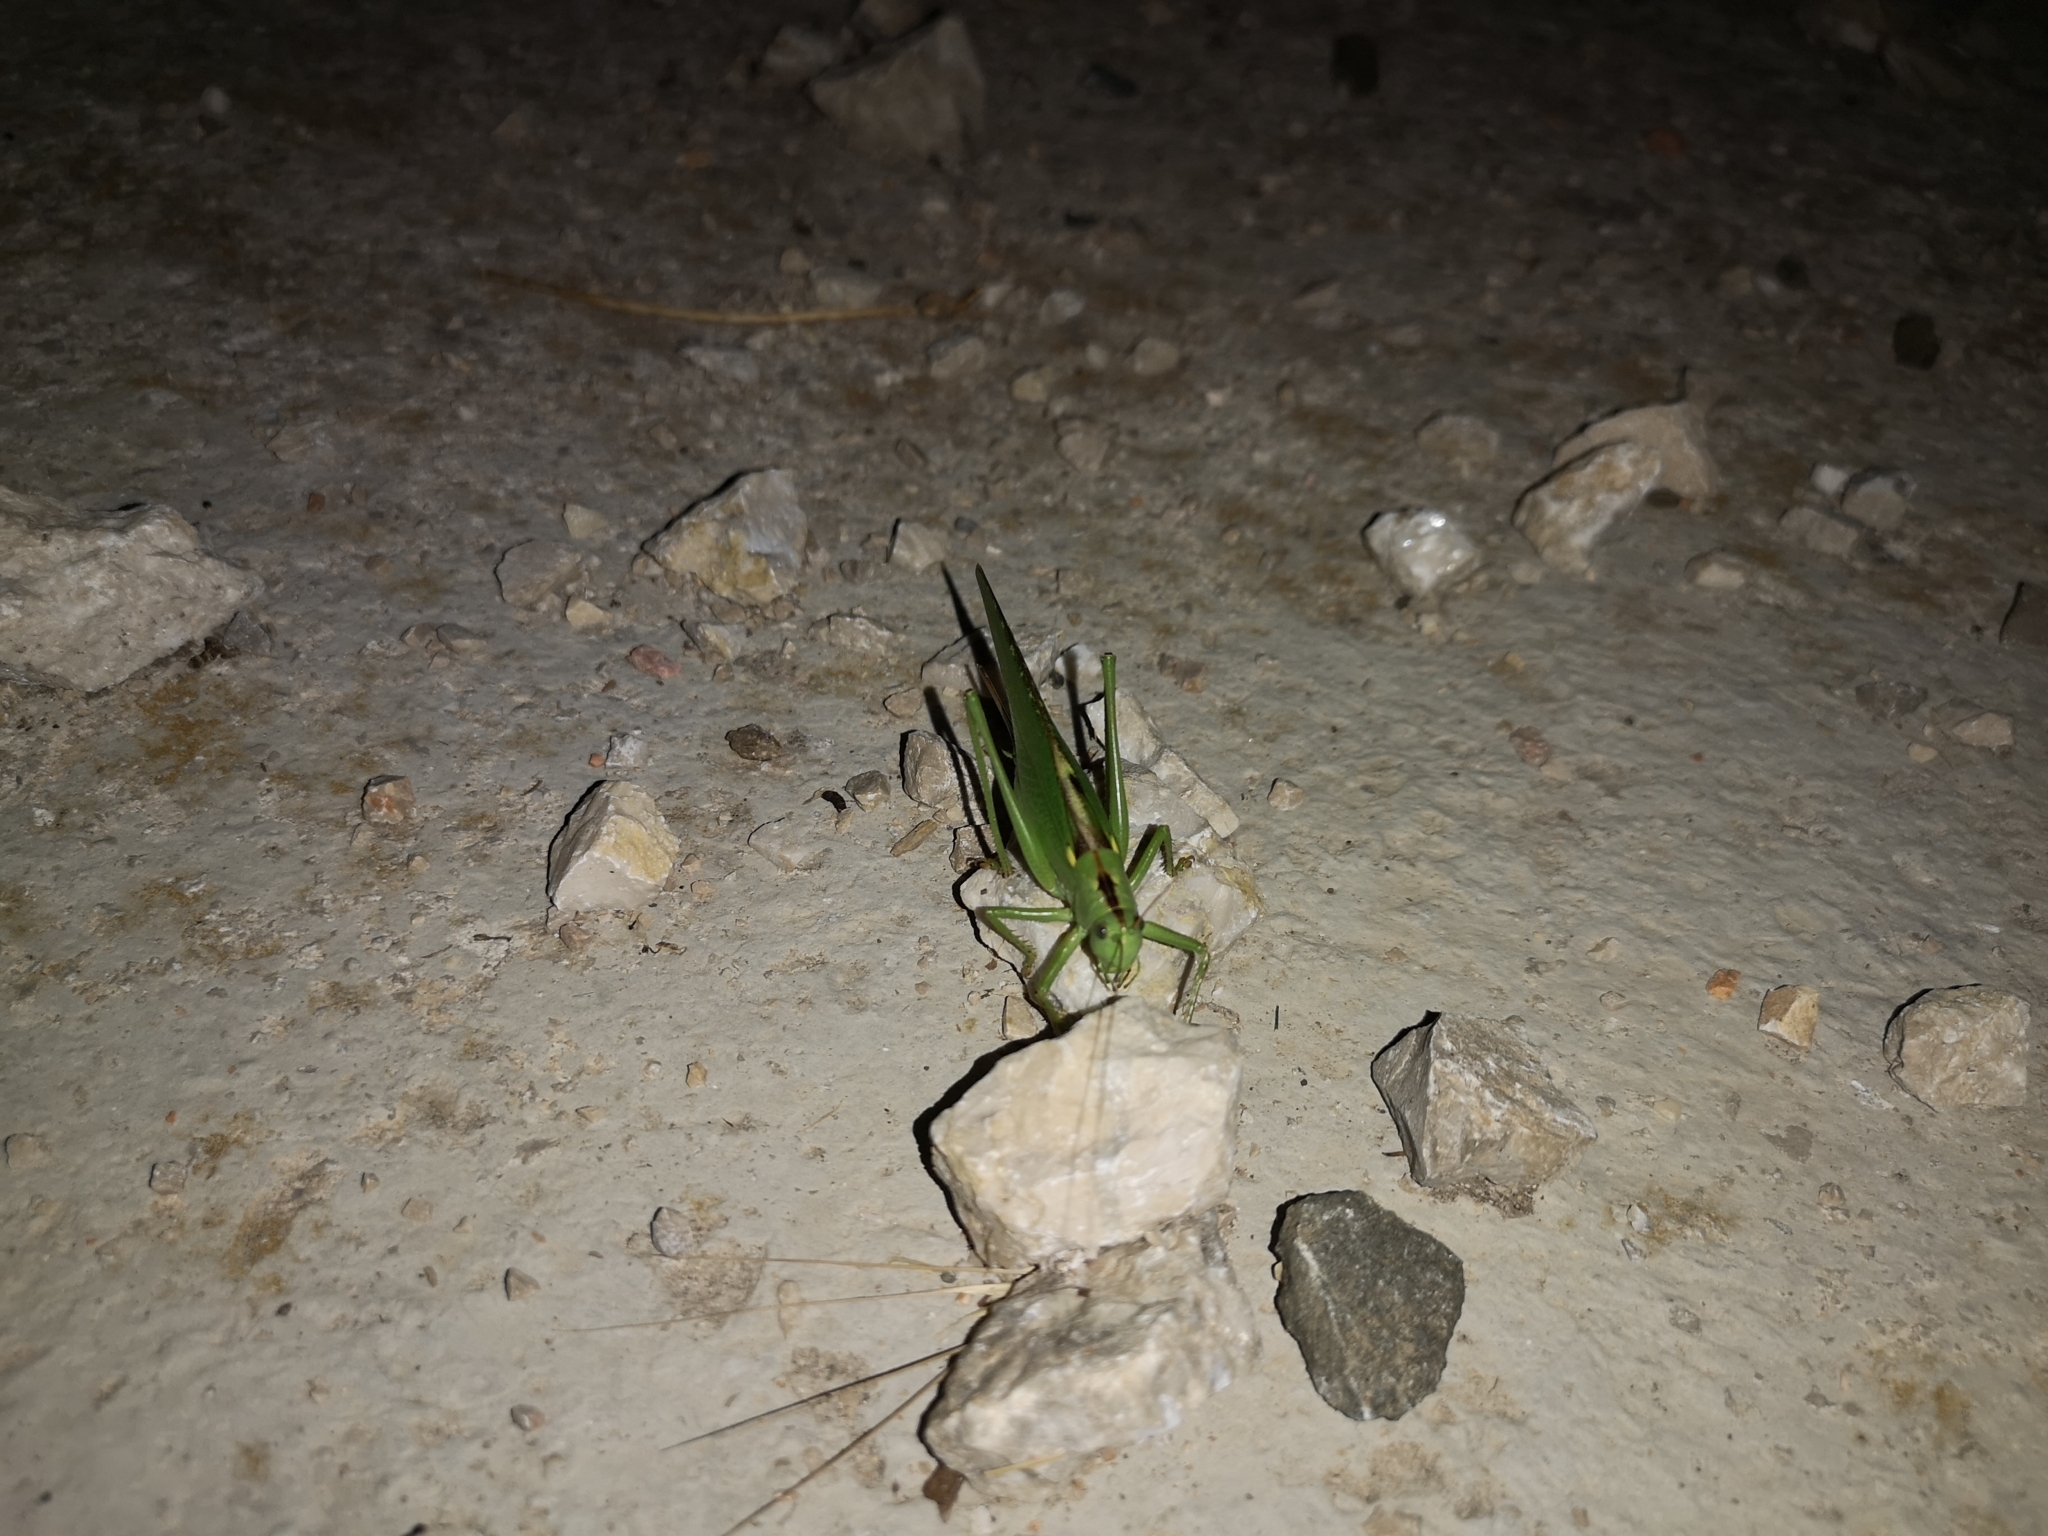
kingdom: Animalia
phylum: Arthropoda
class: Insecta
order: Orthoptera
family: Tettigoniidae
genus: Tettigonia
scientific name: Tettigonia viridissima
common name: Great green bush-cricket
